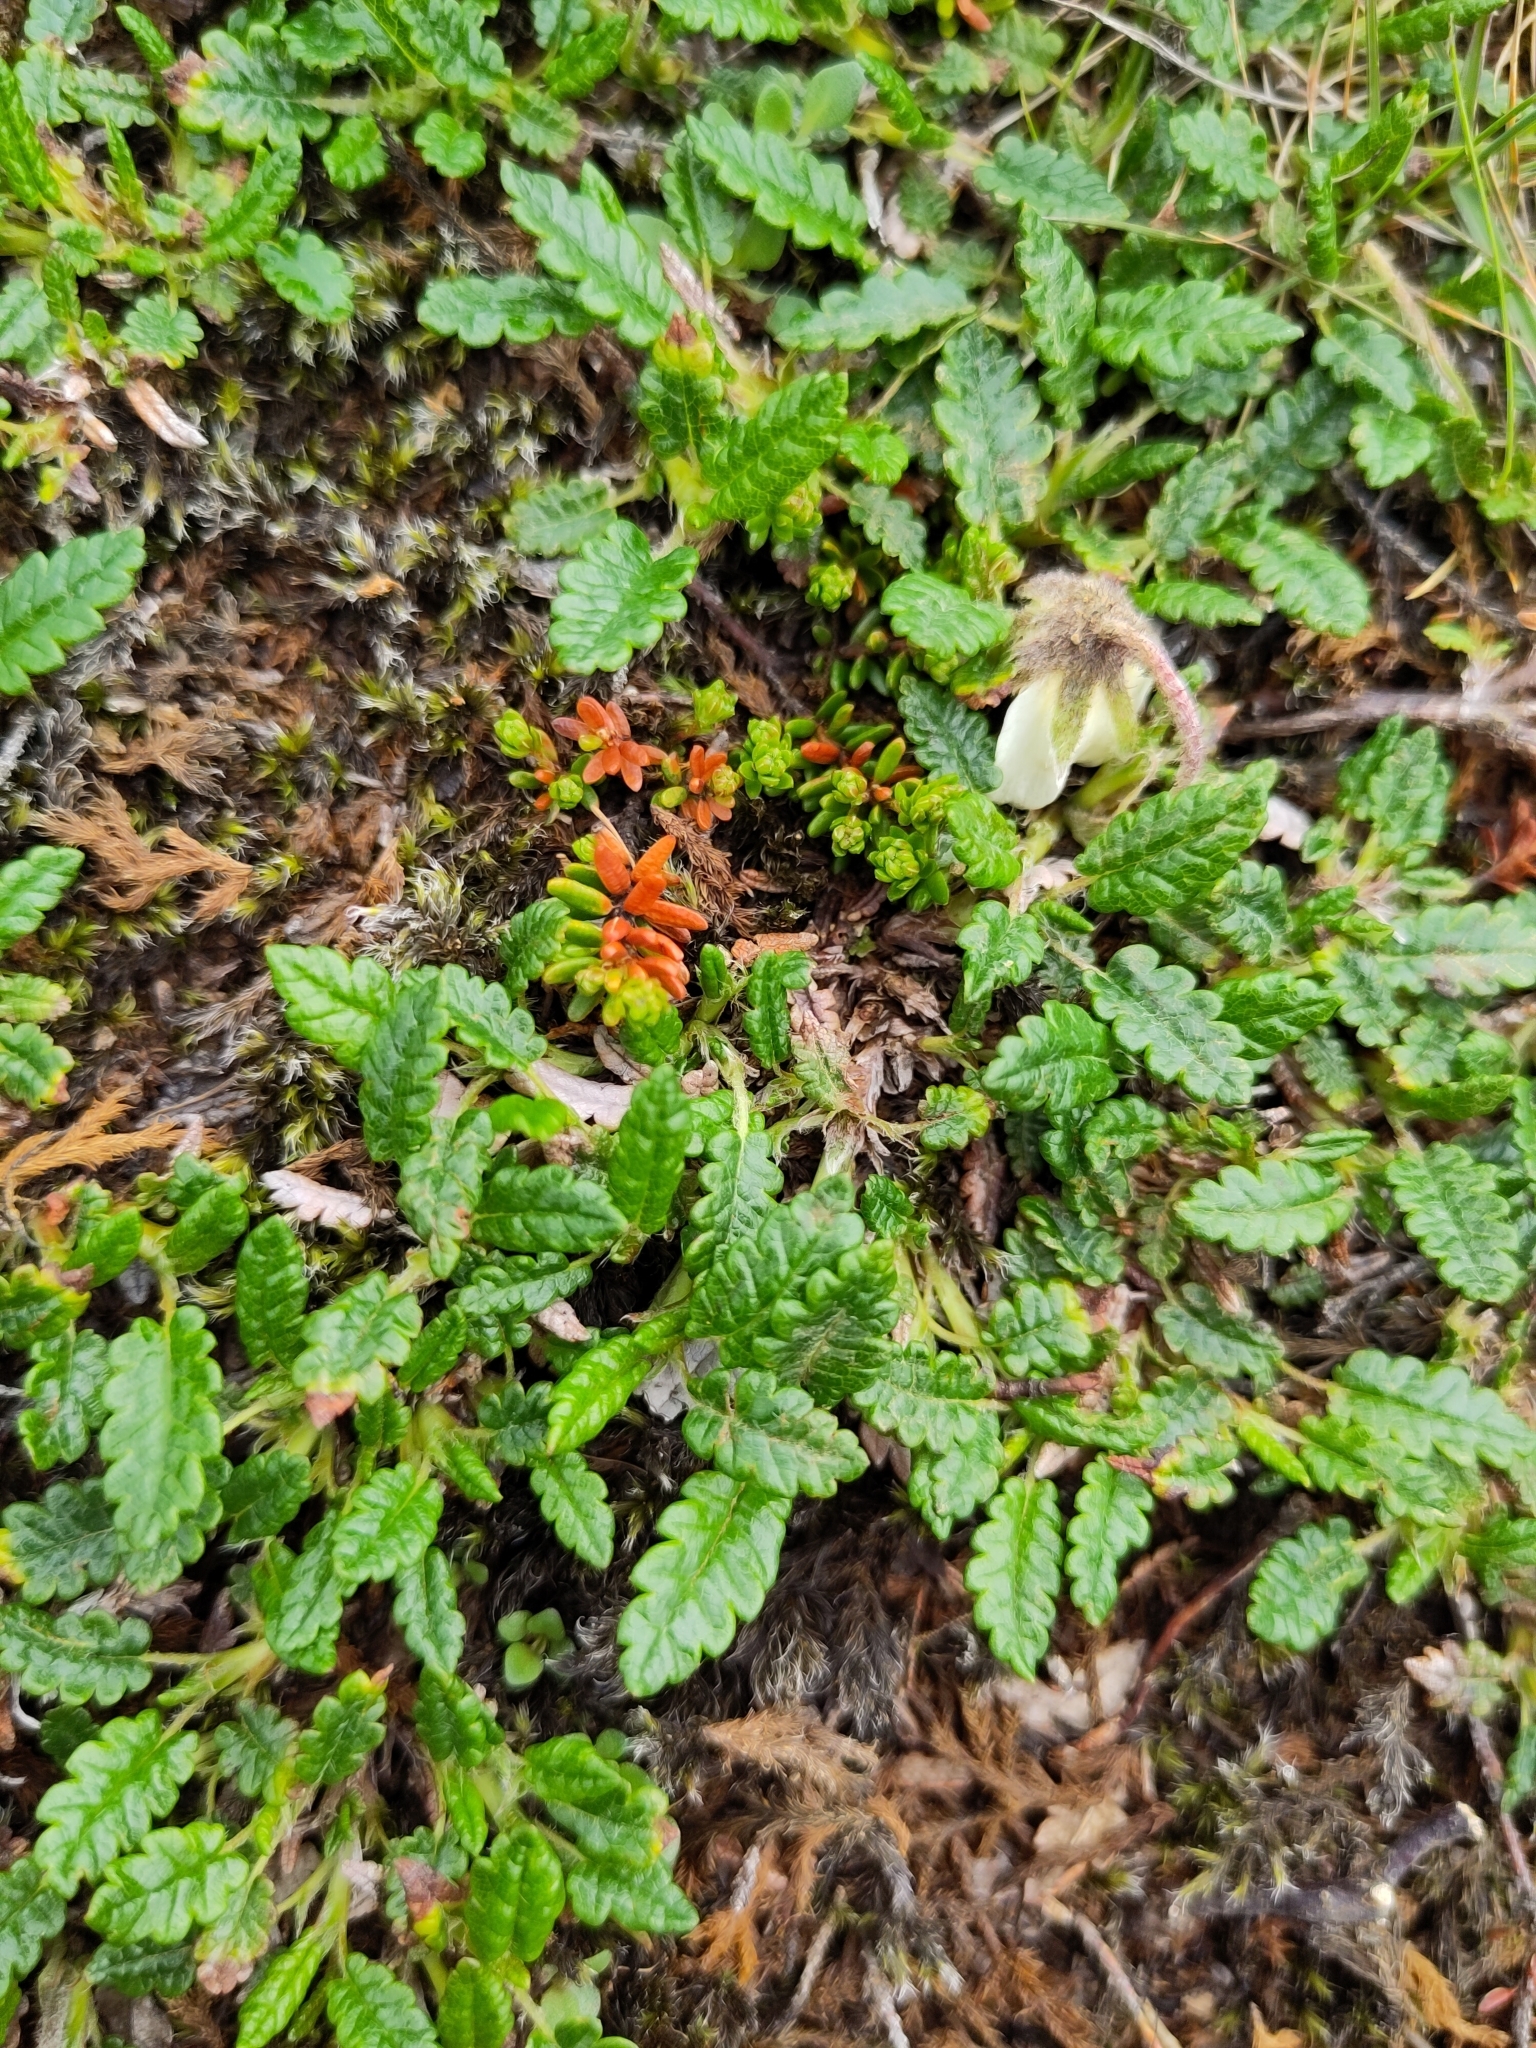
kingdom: Plantae
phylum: Tracheophyta
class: Magnoliopsida
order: Rosales
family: Rosaceae
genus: Dryas
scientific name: Dryas octopetala
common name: Eight-petal mountain-avens
